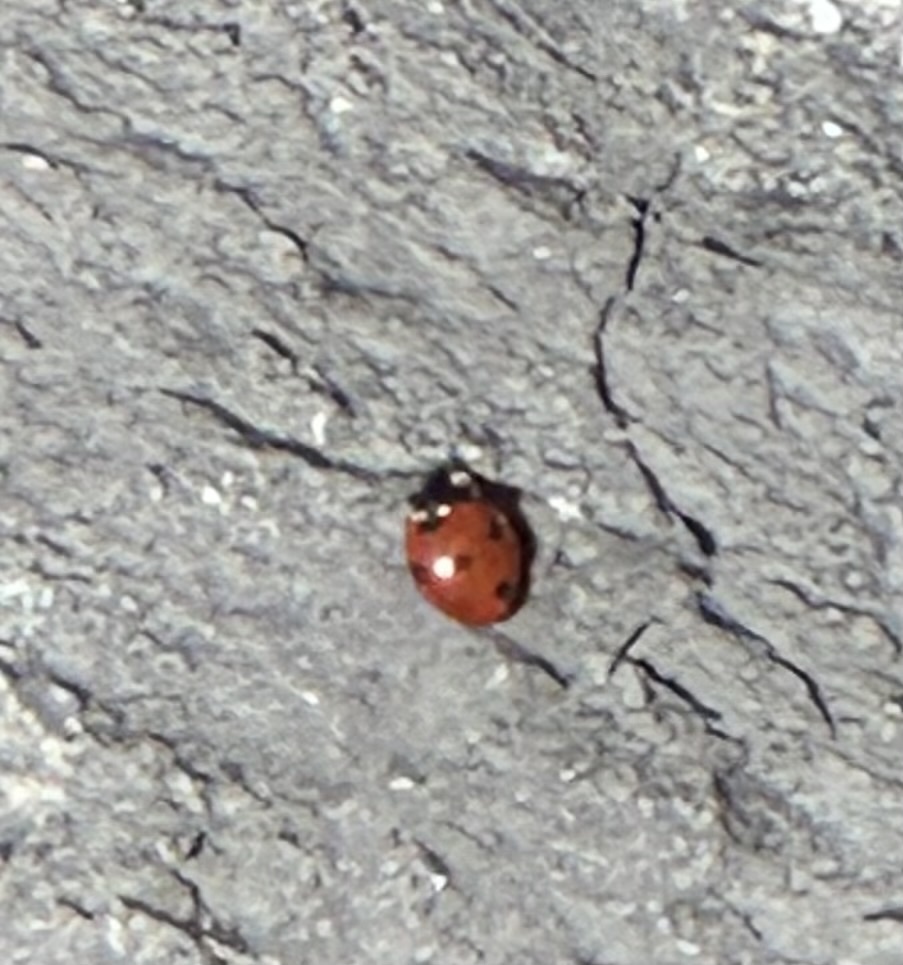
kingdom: Animalia
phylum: Arthropoda
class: Insecta
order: Coleoptera
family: Coccinellidae
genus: Coccinella
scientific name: Coccinella septempunctata
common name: Sevenspotted lady beetle
